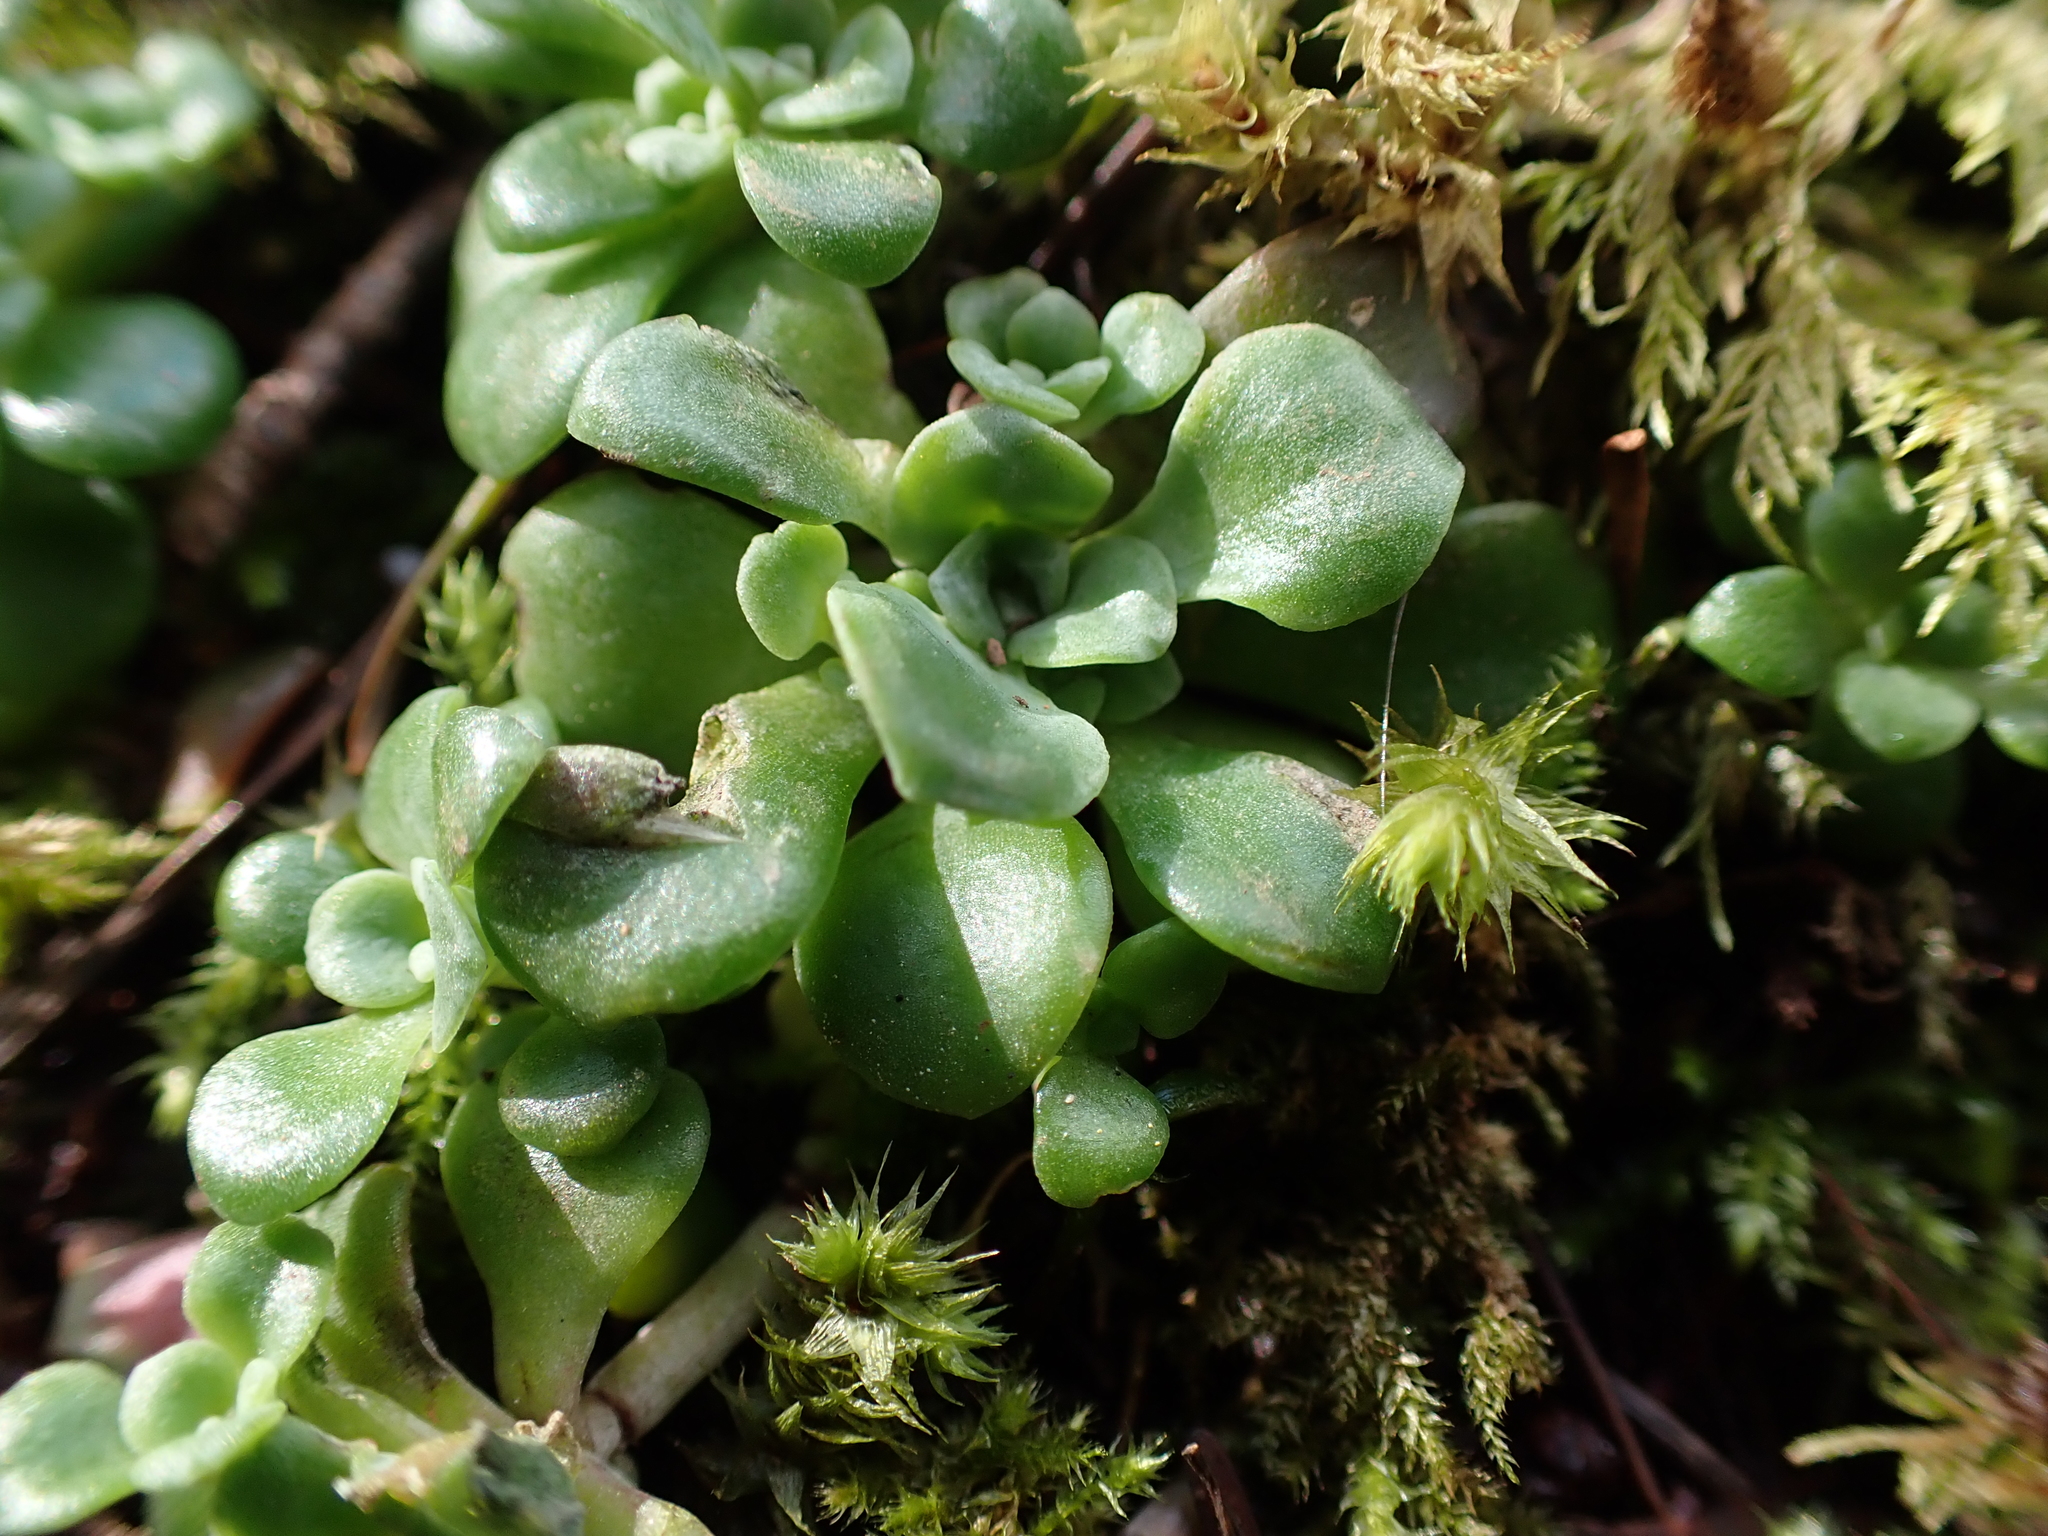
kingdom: Plantae
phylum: Tracheophyta
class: Magnoliopsida
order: Saxifragales
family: Crassulaceae
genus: Sedum
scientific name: Sedum spathulifolium
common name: Colorado stonecrop
